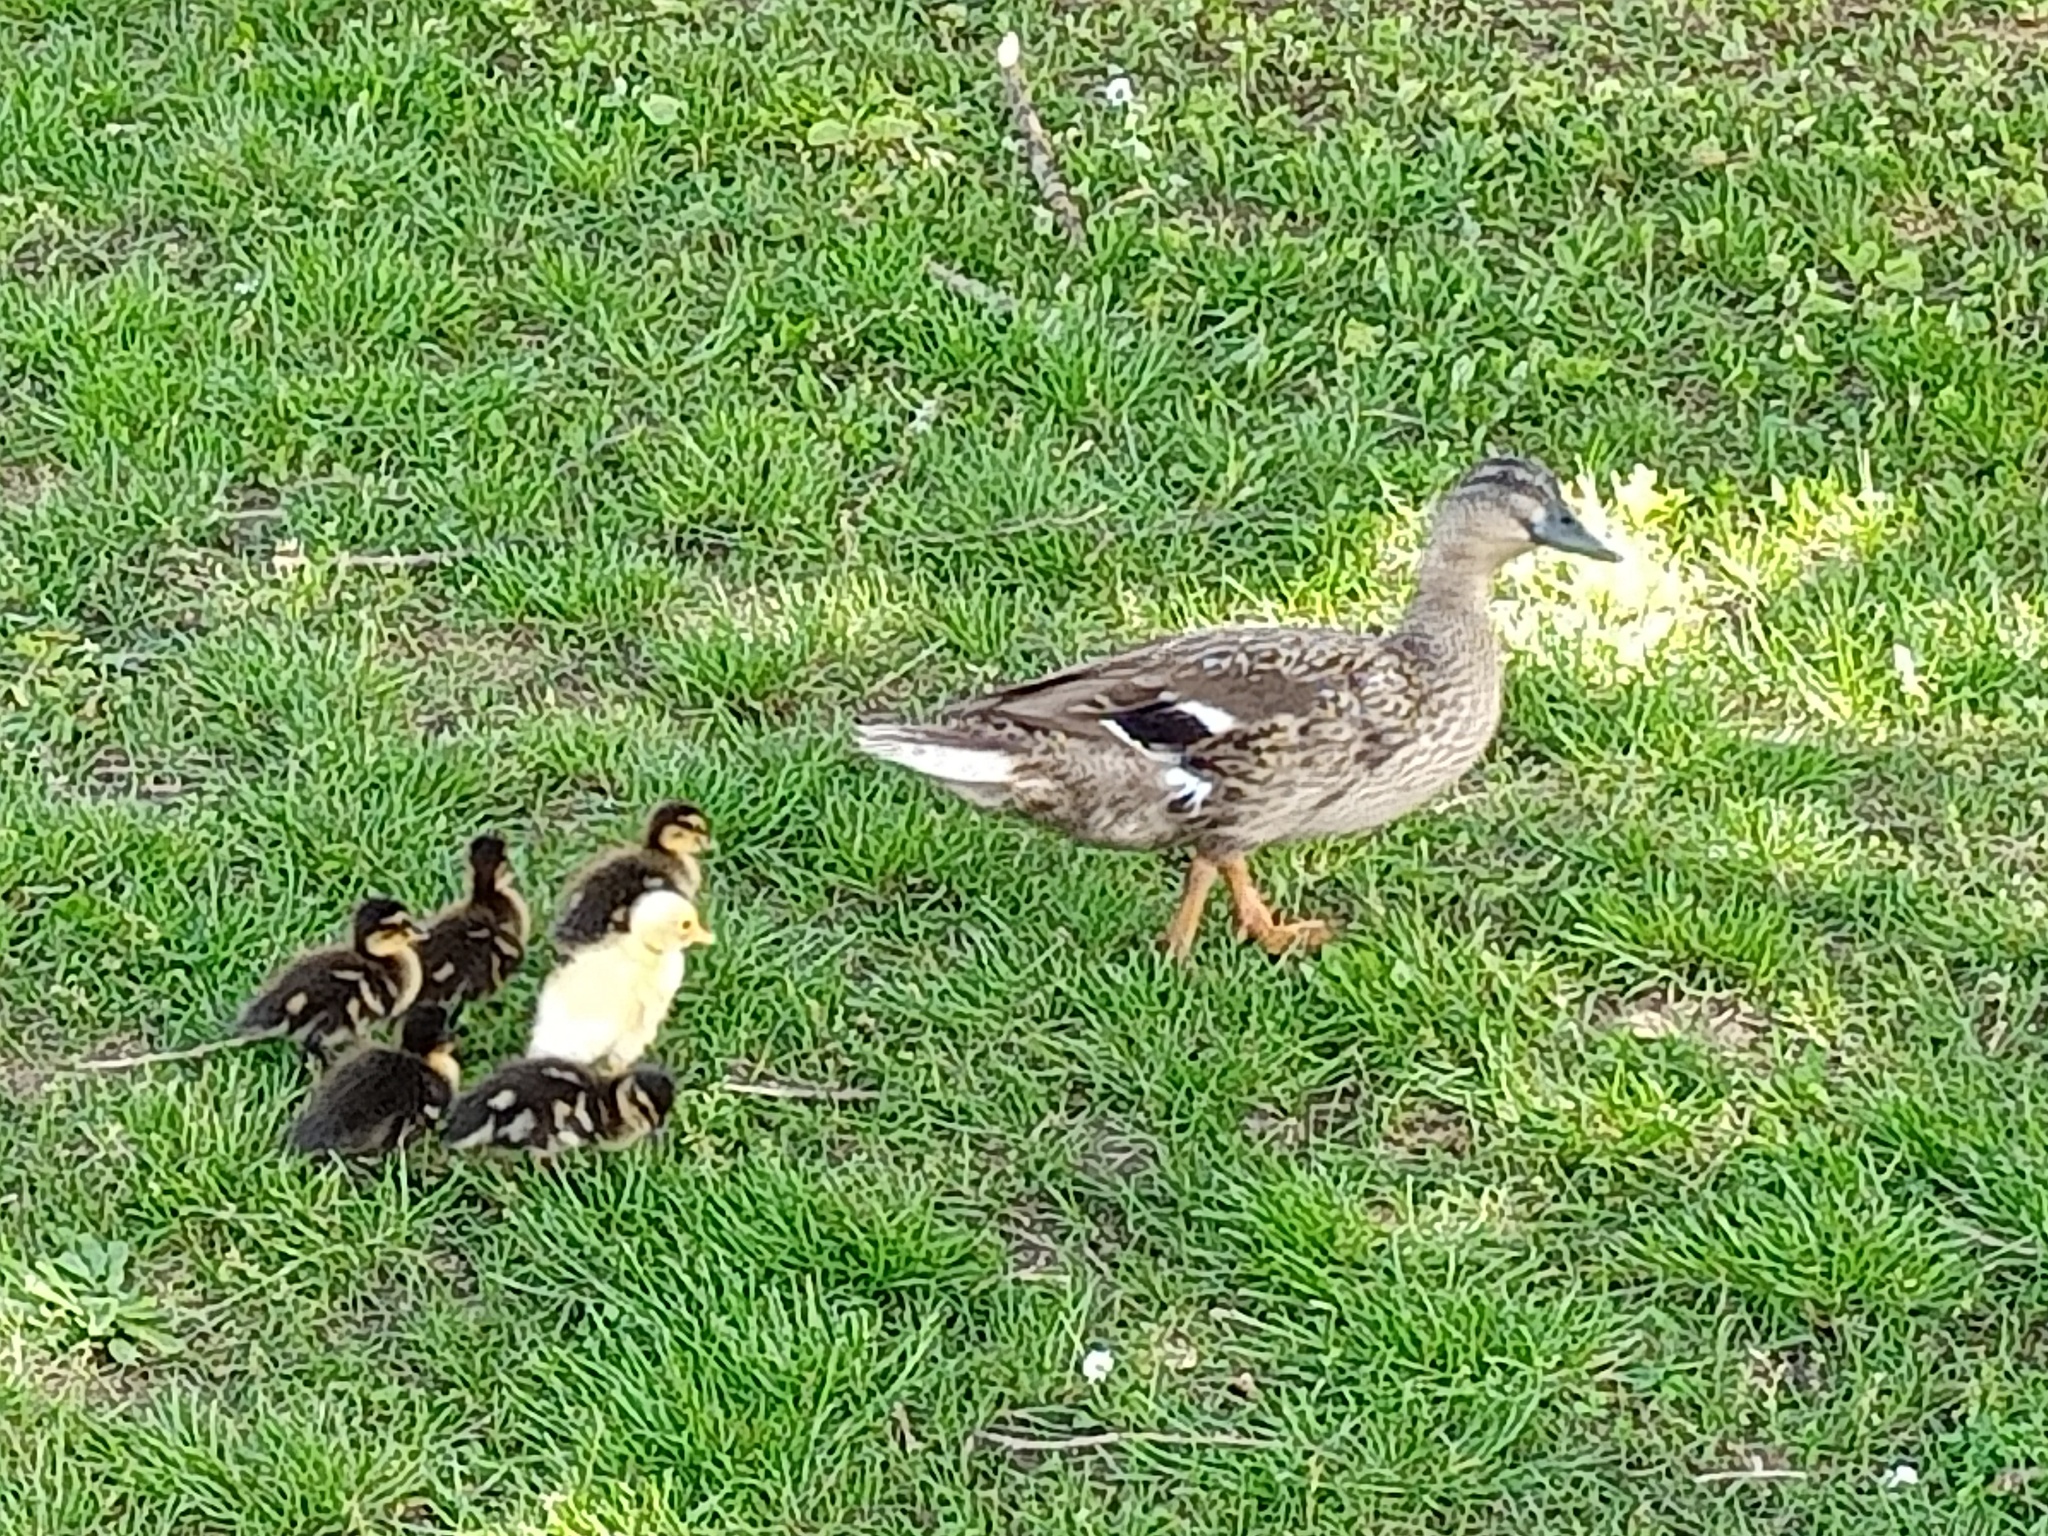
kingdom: Animalia
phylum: Chordata
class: Aves
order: Anseriformes
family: Anatidae
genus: Anas
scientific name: Anas platyrhynchos
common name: Mallard
